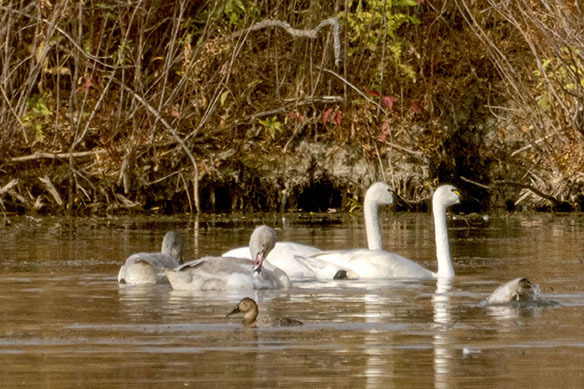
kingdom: Animalia
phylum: Chordata
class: Aves
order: Anseriformes
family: Anatidae
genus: Cygnus
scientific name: Cygnus columbianus
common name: Tundra swan
